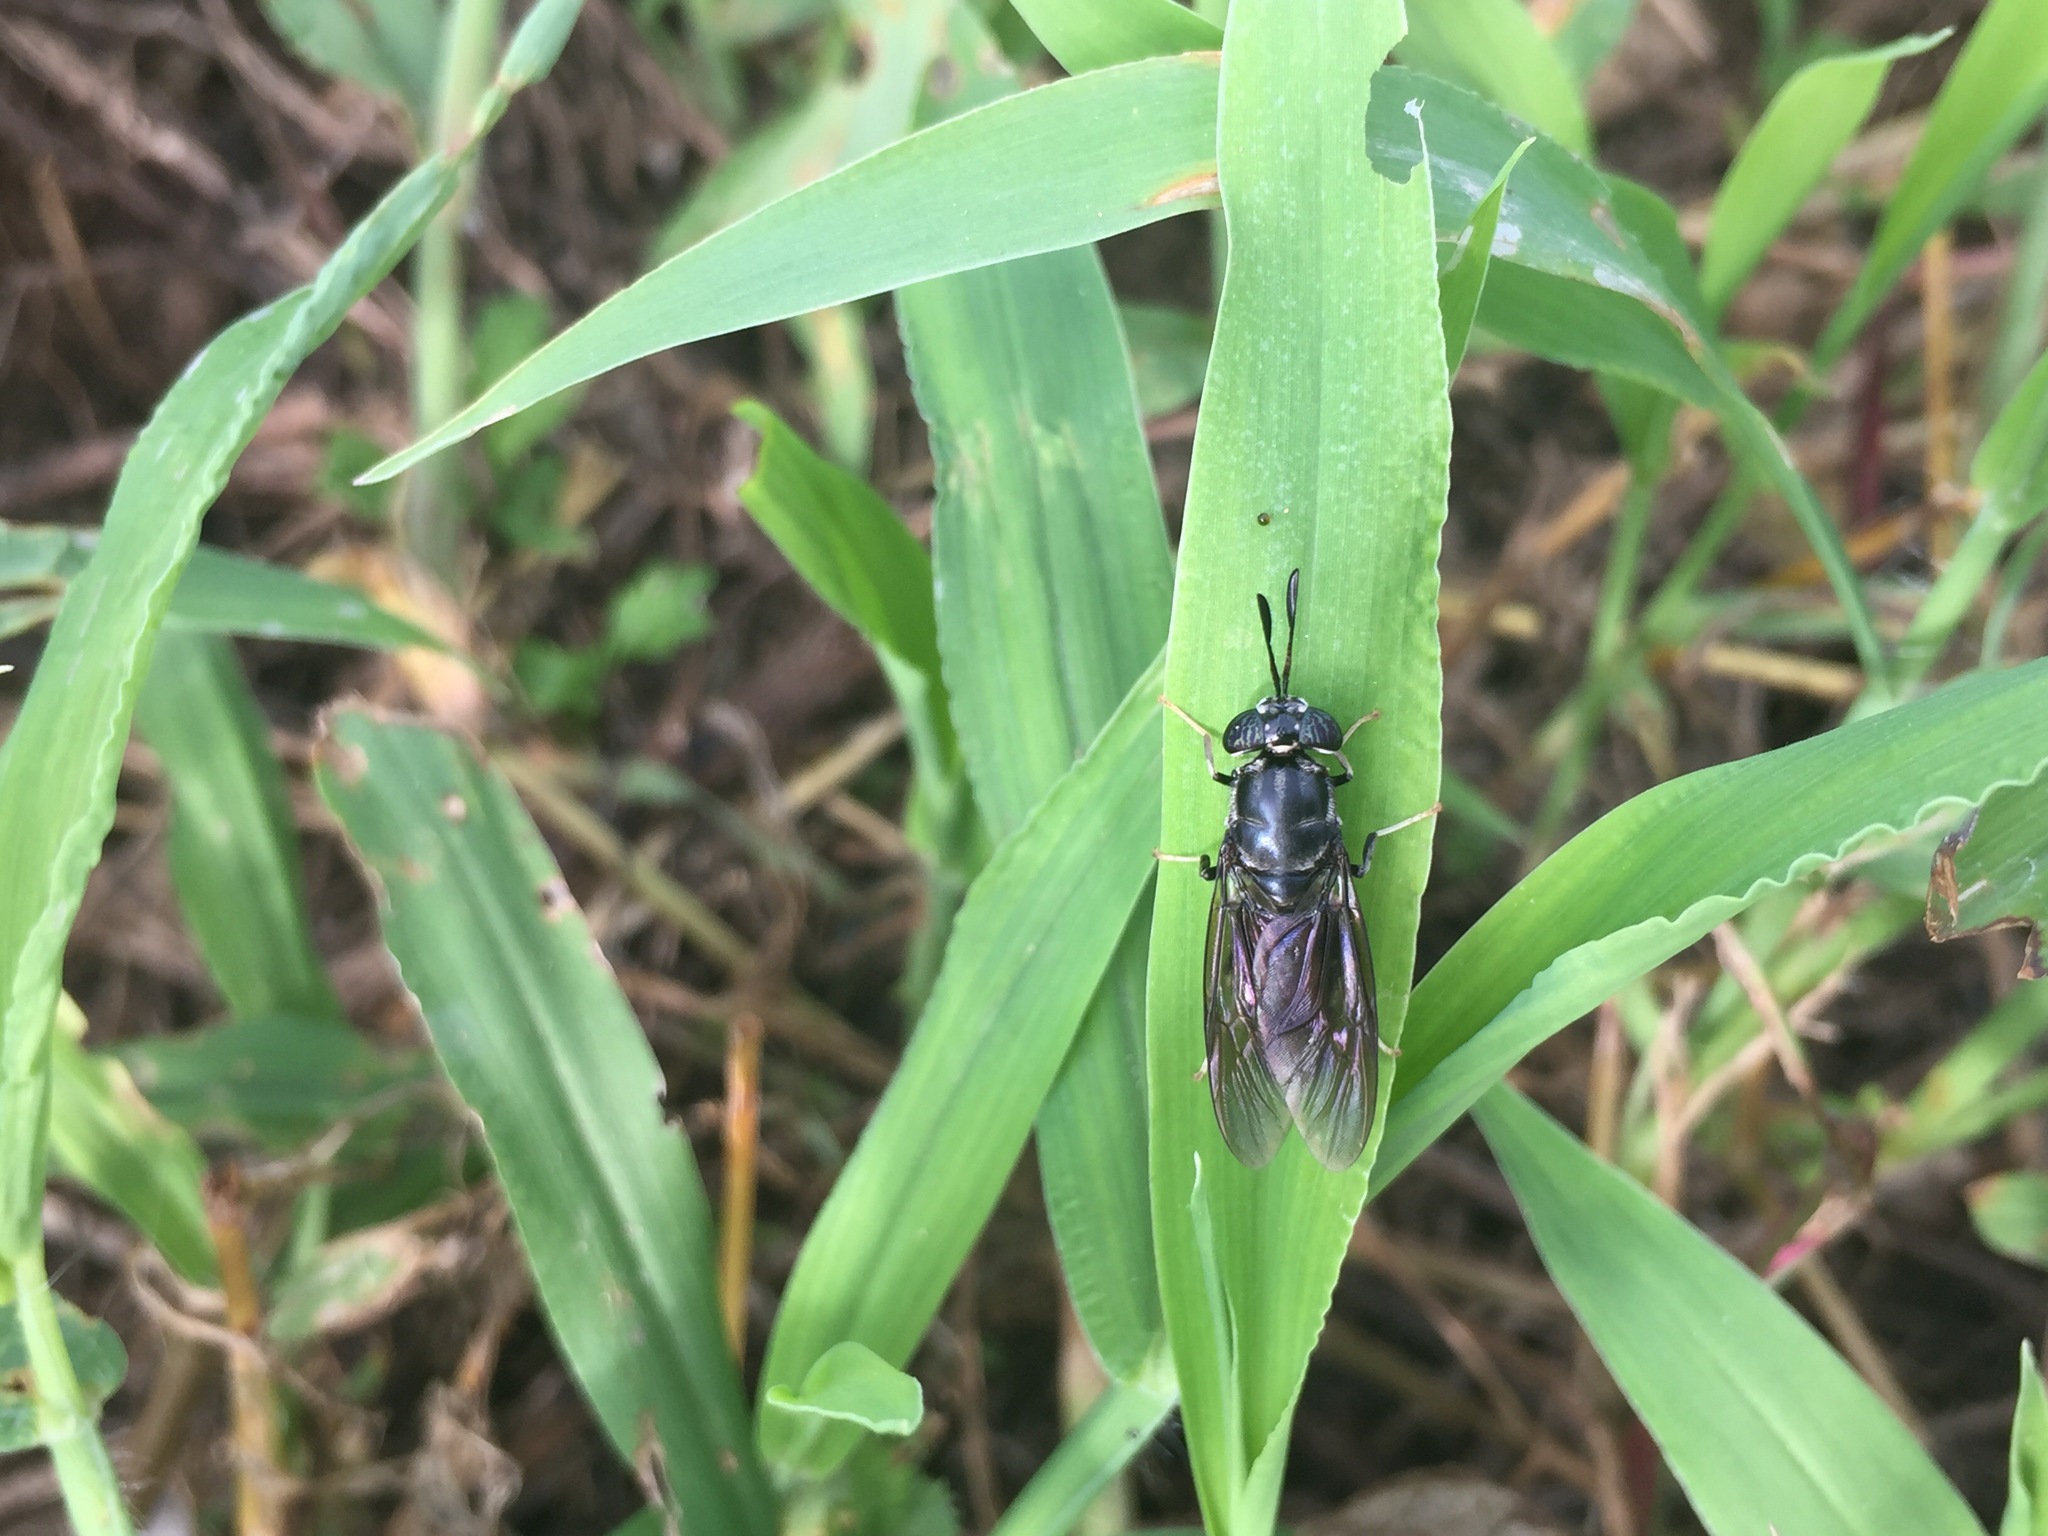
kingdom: Animalia
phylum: Arthropoda
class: Insecta
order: Diptera
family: Stratiomyidae
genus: Hermetia
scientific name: Hermetia illucens
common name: Black soldier fly
